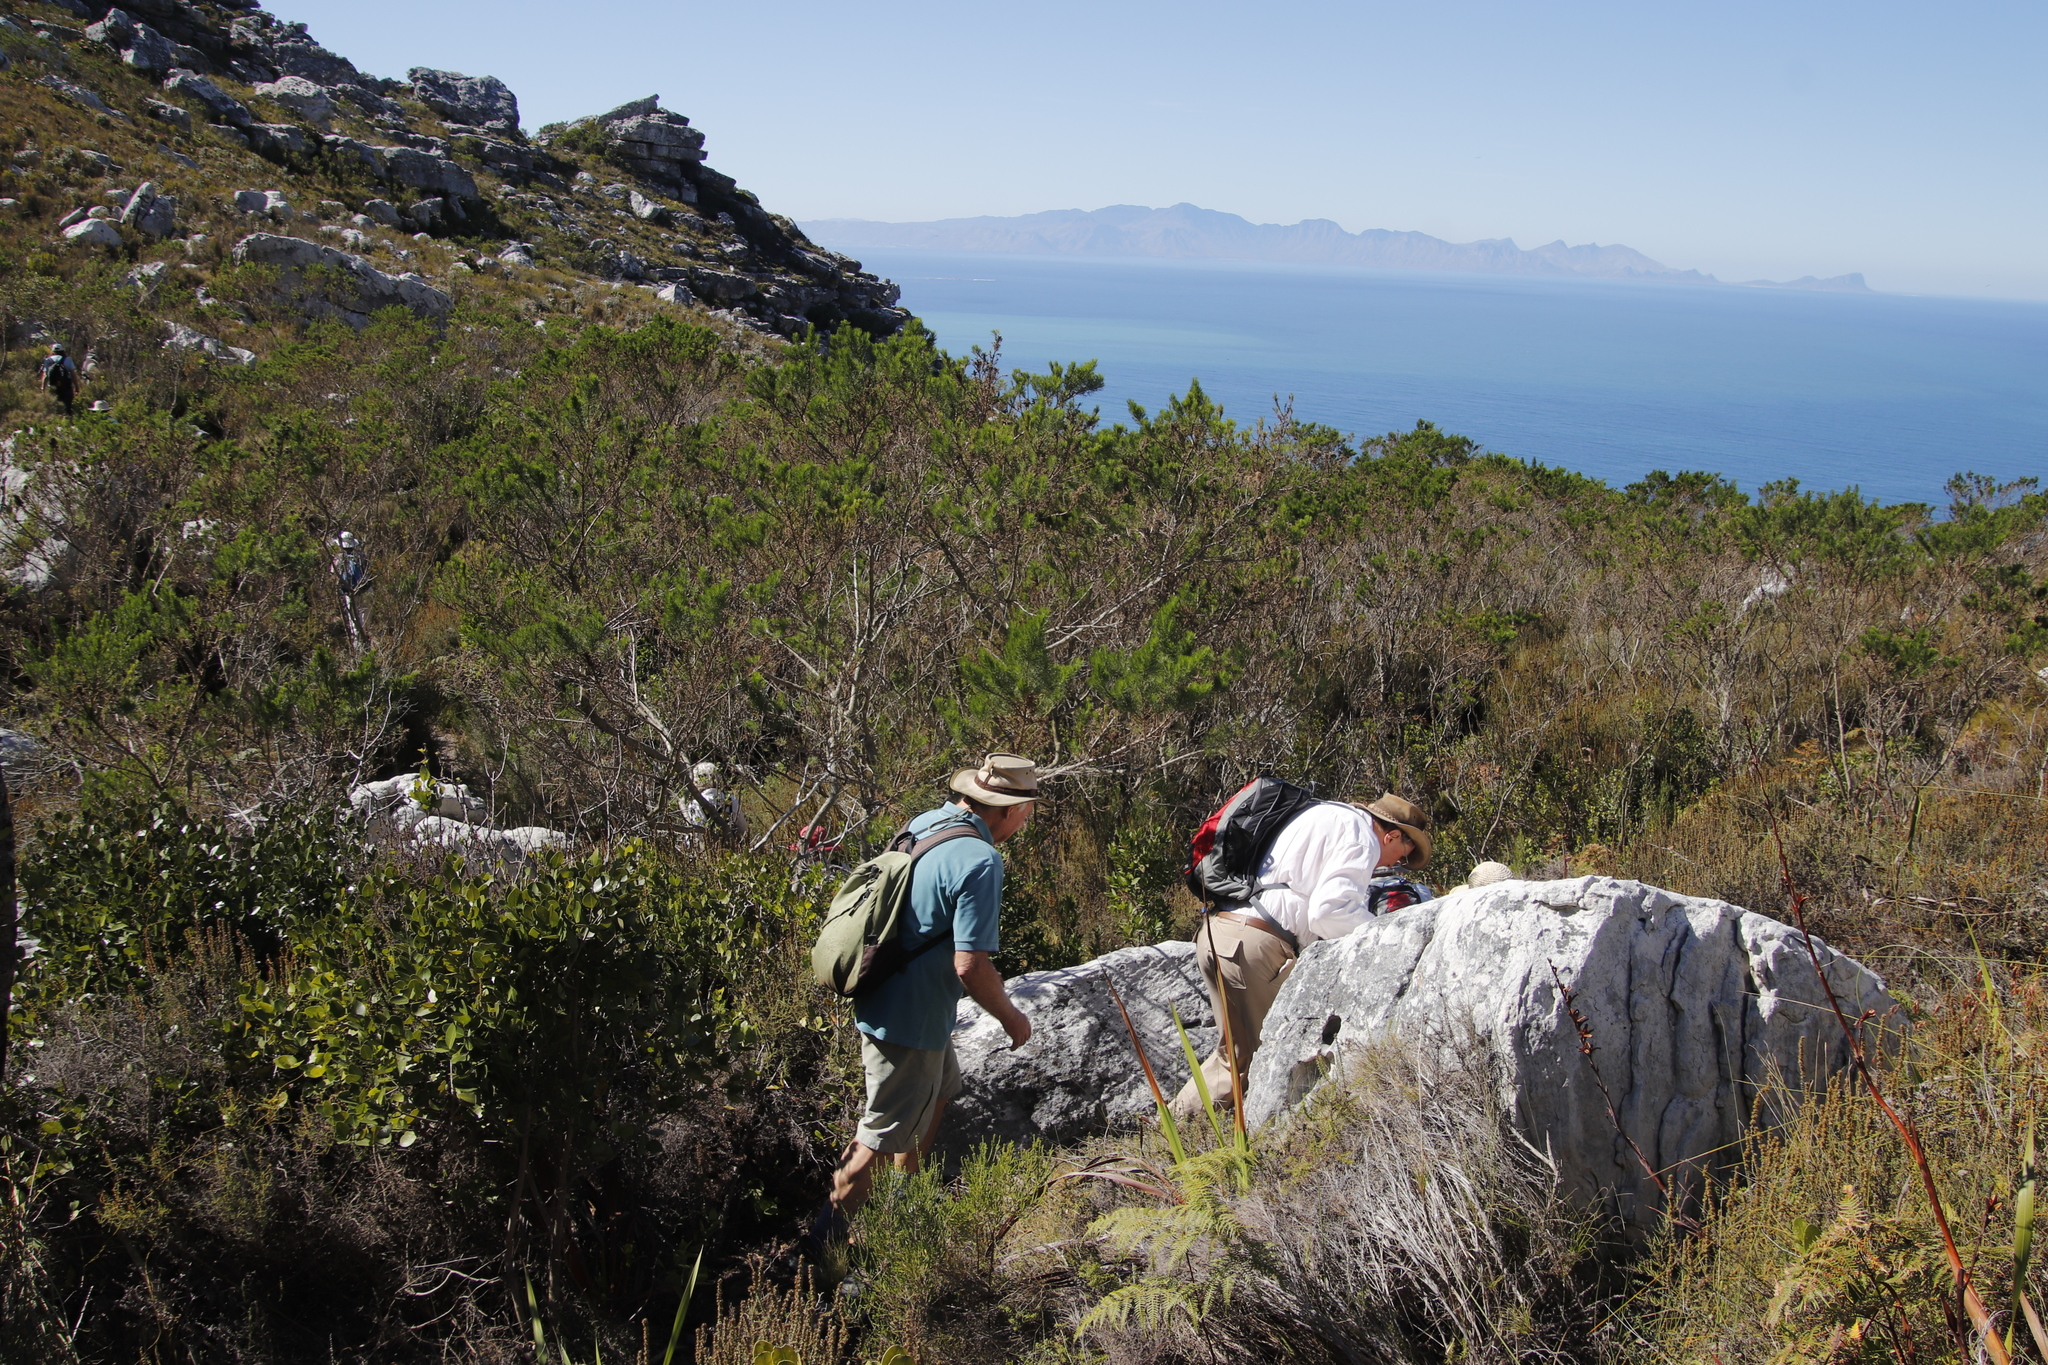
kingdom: Plantae
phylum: Tracheophyta
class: Magnoliopsida
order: Fabales
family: Fabaceae
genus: Psoralea
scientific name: Psoralea pinnata
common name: African scurfpea
